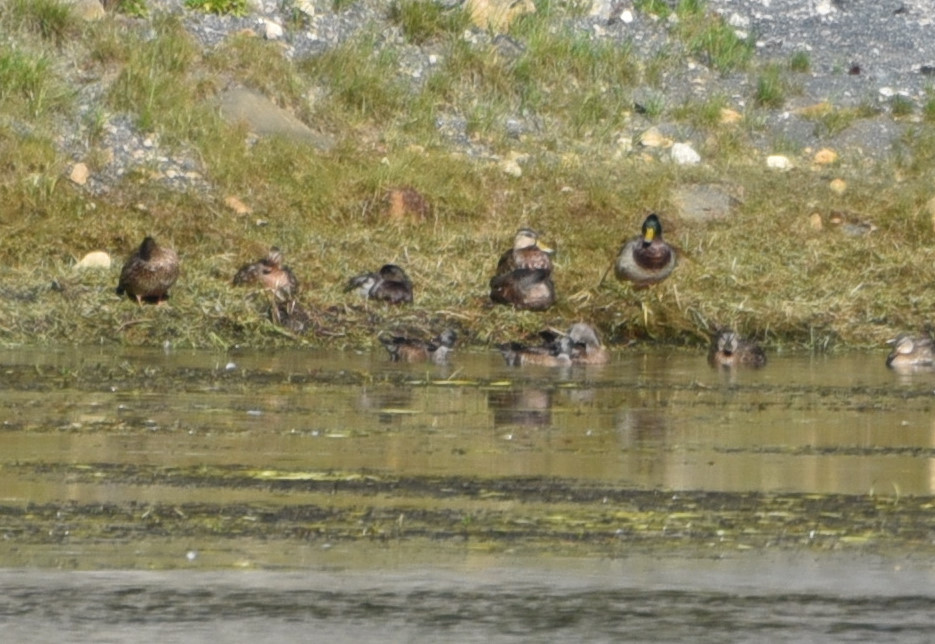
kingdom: Animalia
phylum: Chordata
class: Aves
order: Anseriformes
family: Anatidae
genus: Anas
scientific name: Anas platyrhynchos
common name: Mallard
